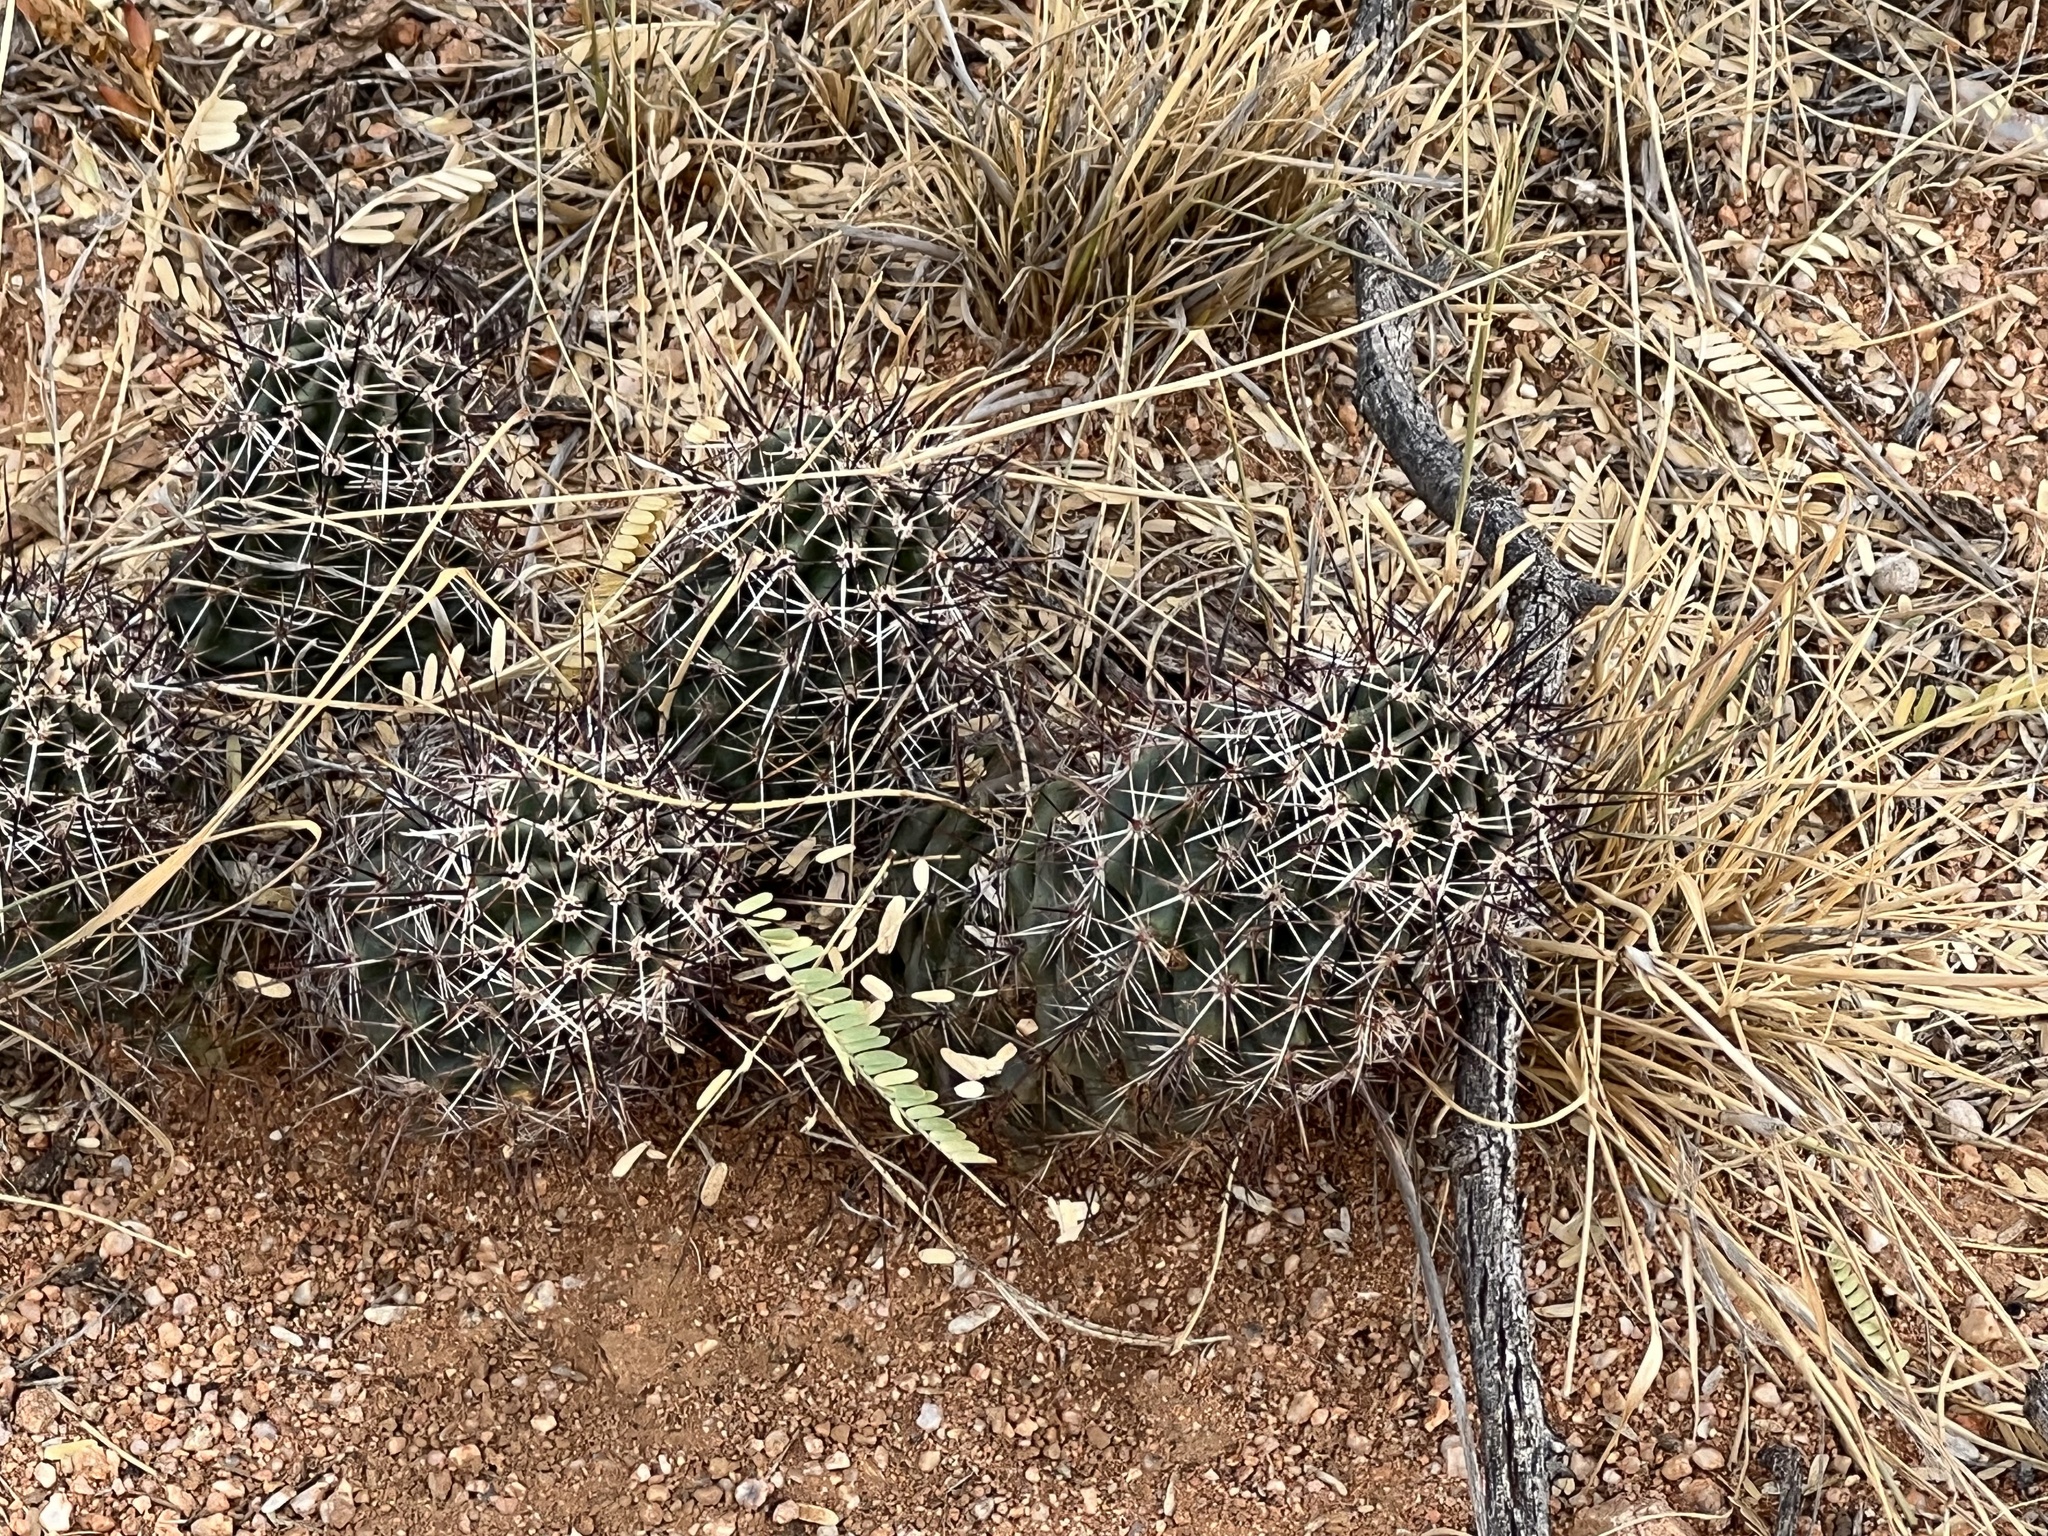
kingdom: Plantae
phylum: Tracheophyta
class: Magnoliopsida
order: Caryophyllales
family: Cactaceae
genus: Echinocereus
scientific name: Echinocereus fasciculatus
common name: Bundle hedgehog
